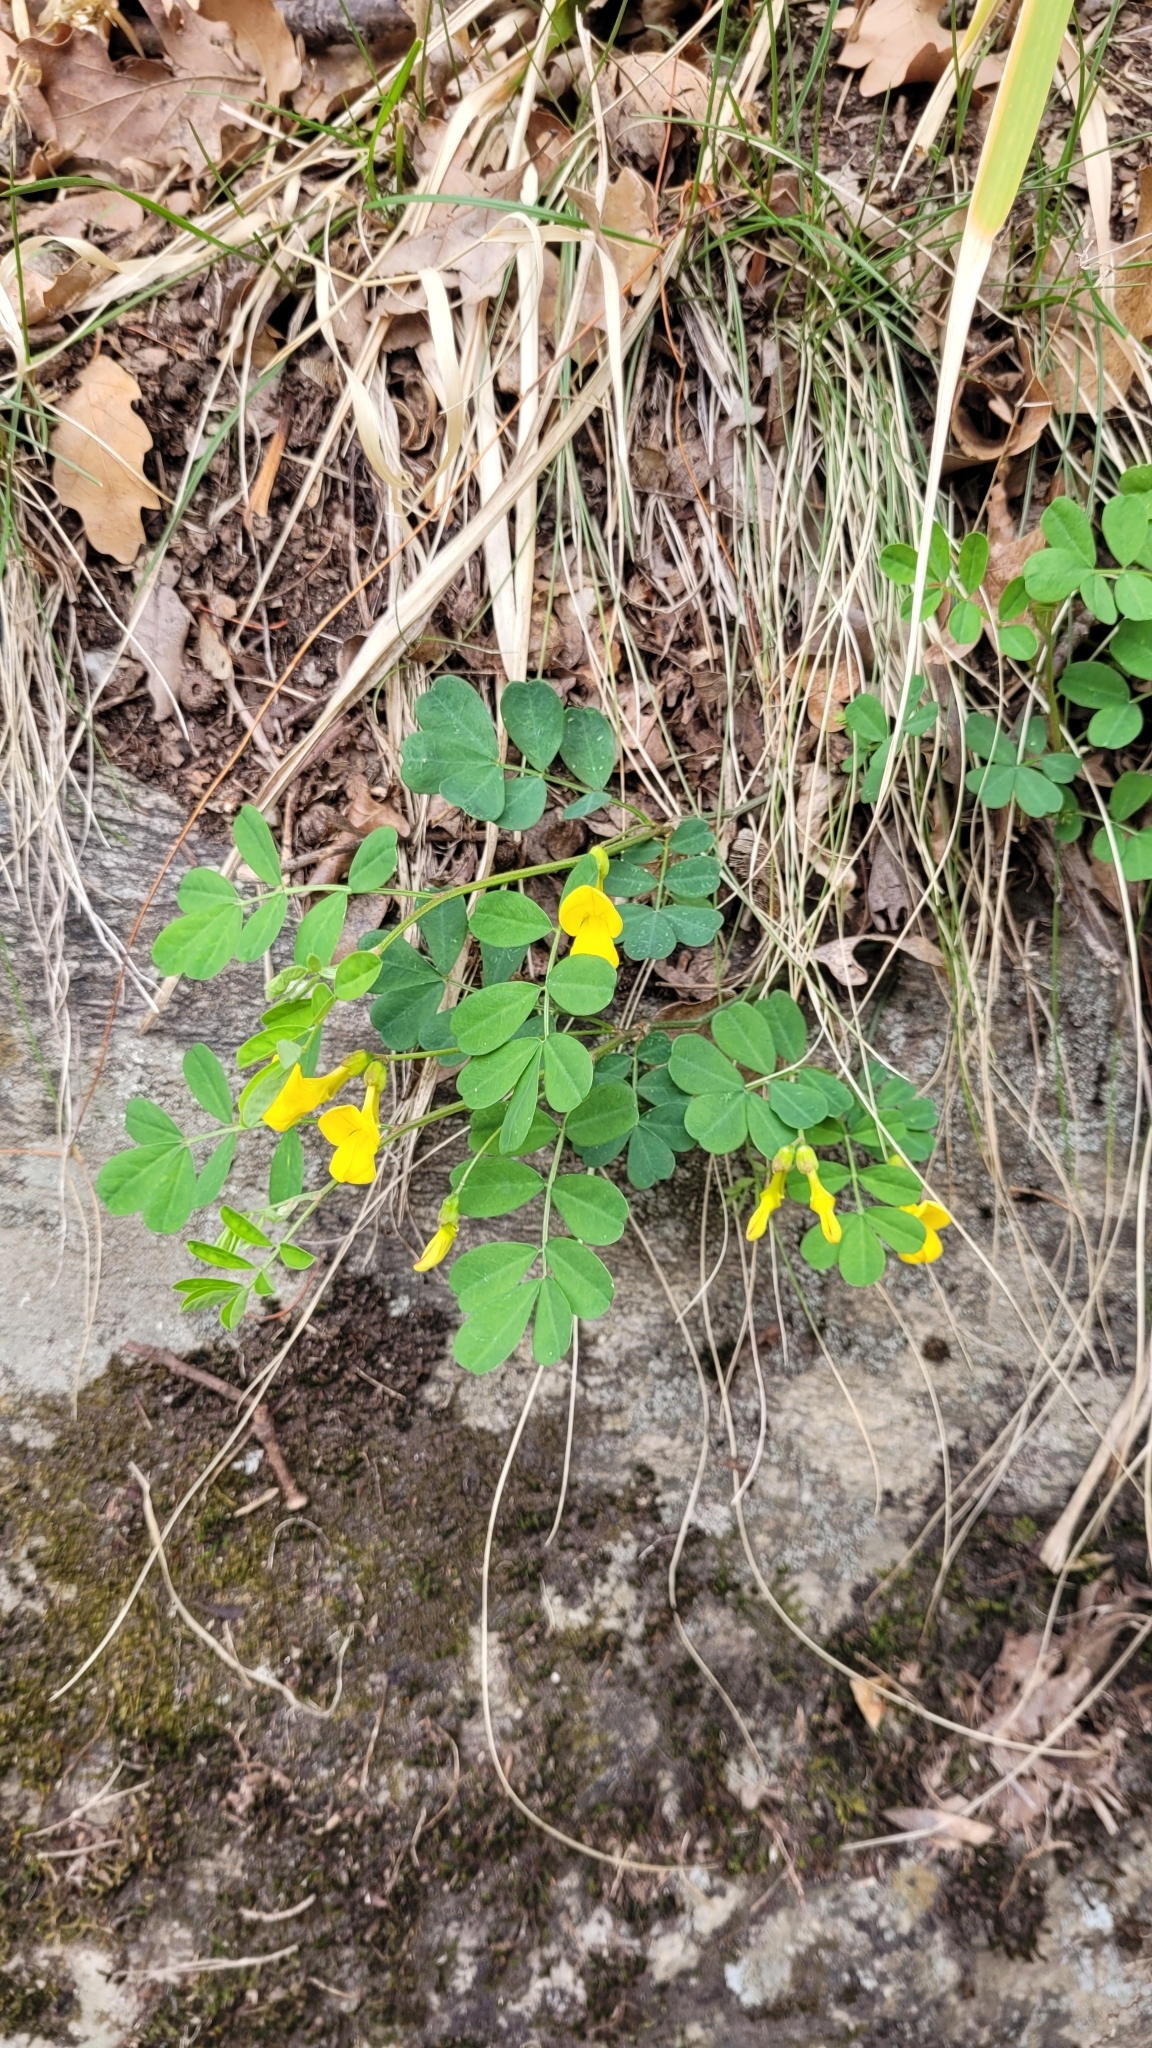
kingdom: Plantae
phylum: Tracheophyta
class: Magnoliopsida
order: Fabales
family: Fabaceae
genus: Hippocrepis
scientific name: Hippocrepis emerus
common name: Scorpion senna
